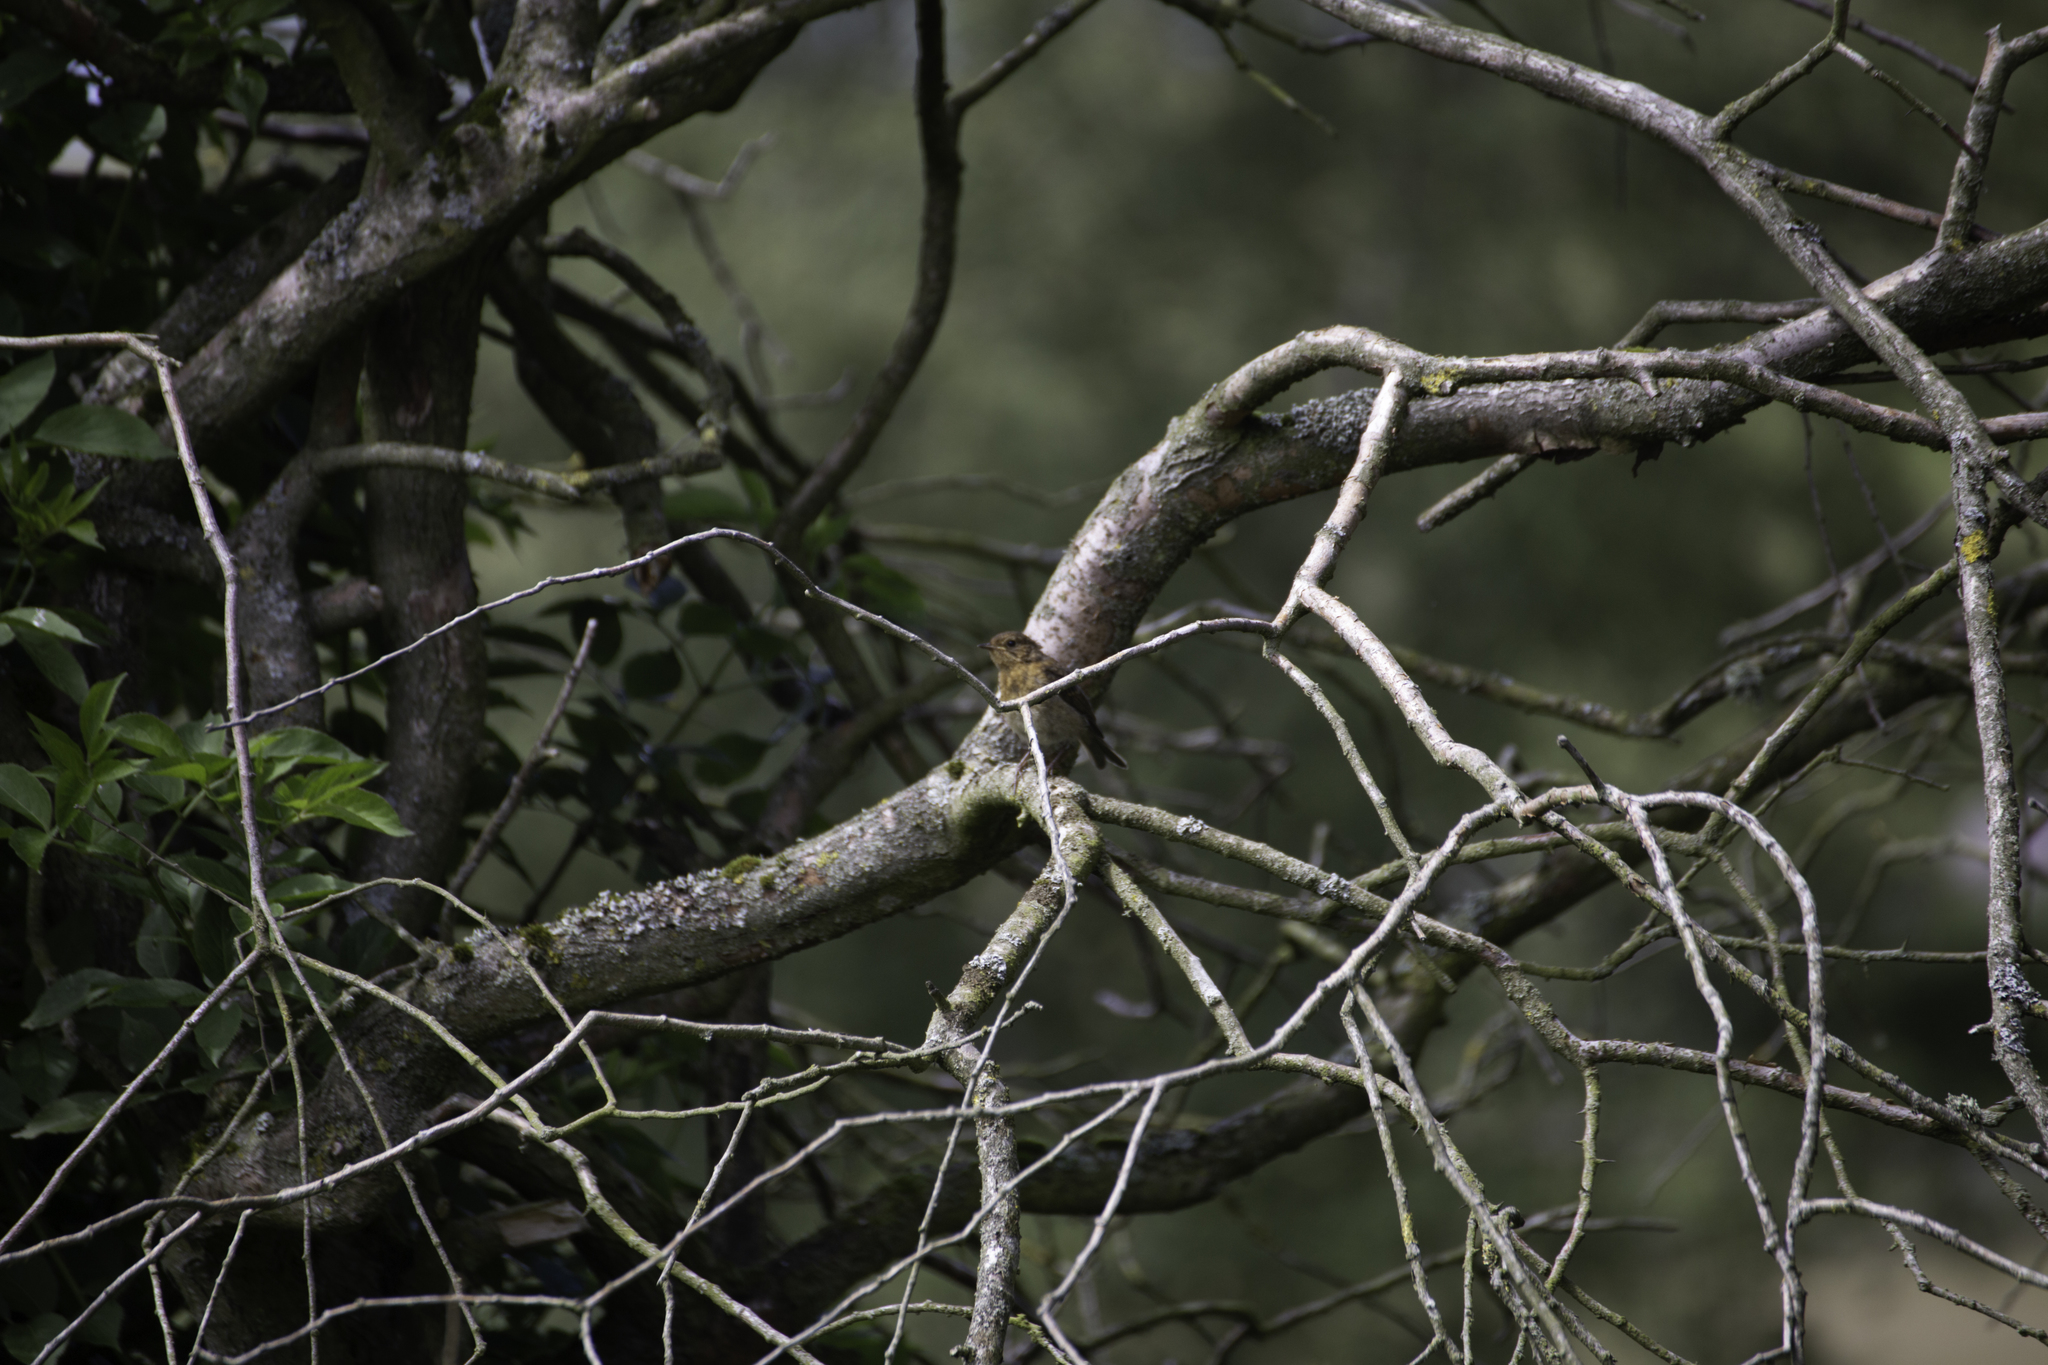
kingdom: Animalia
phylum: Chordata
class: Aves
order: Passeriformes
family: Muscicapidae
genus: Erithacus
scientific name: Erithacus rubecula
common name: European robin
